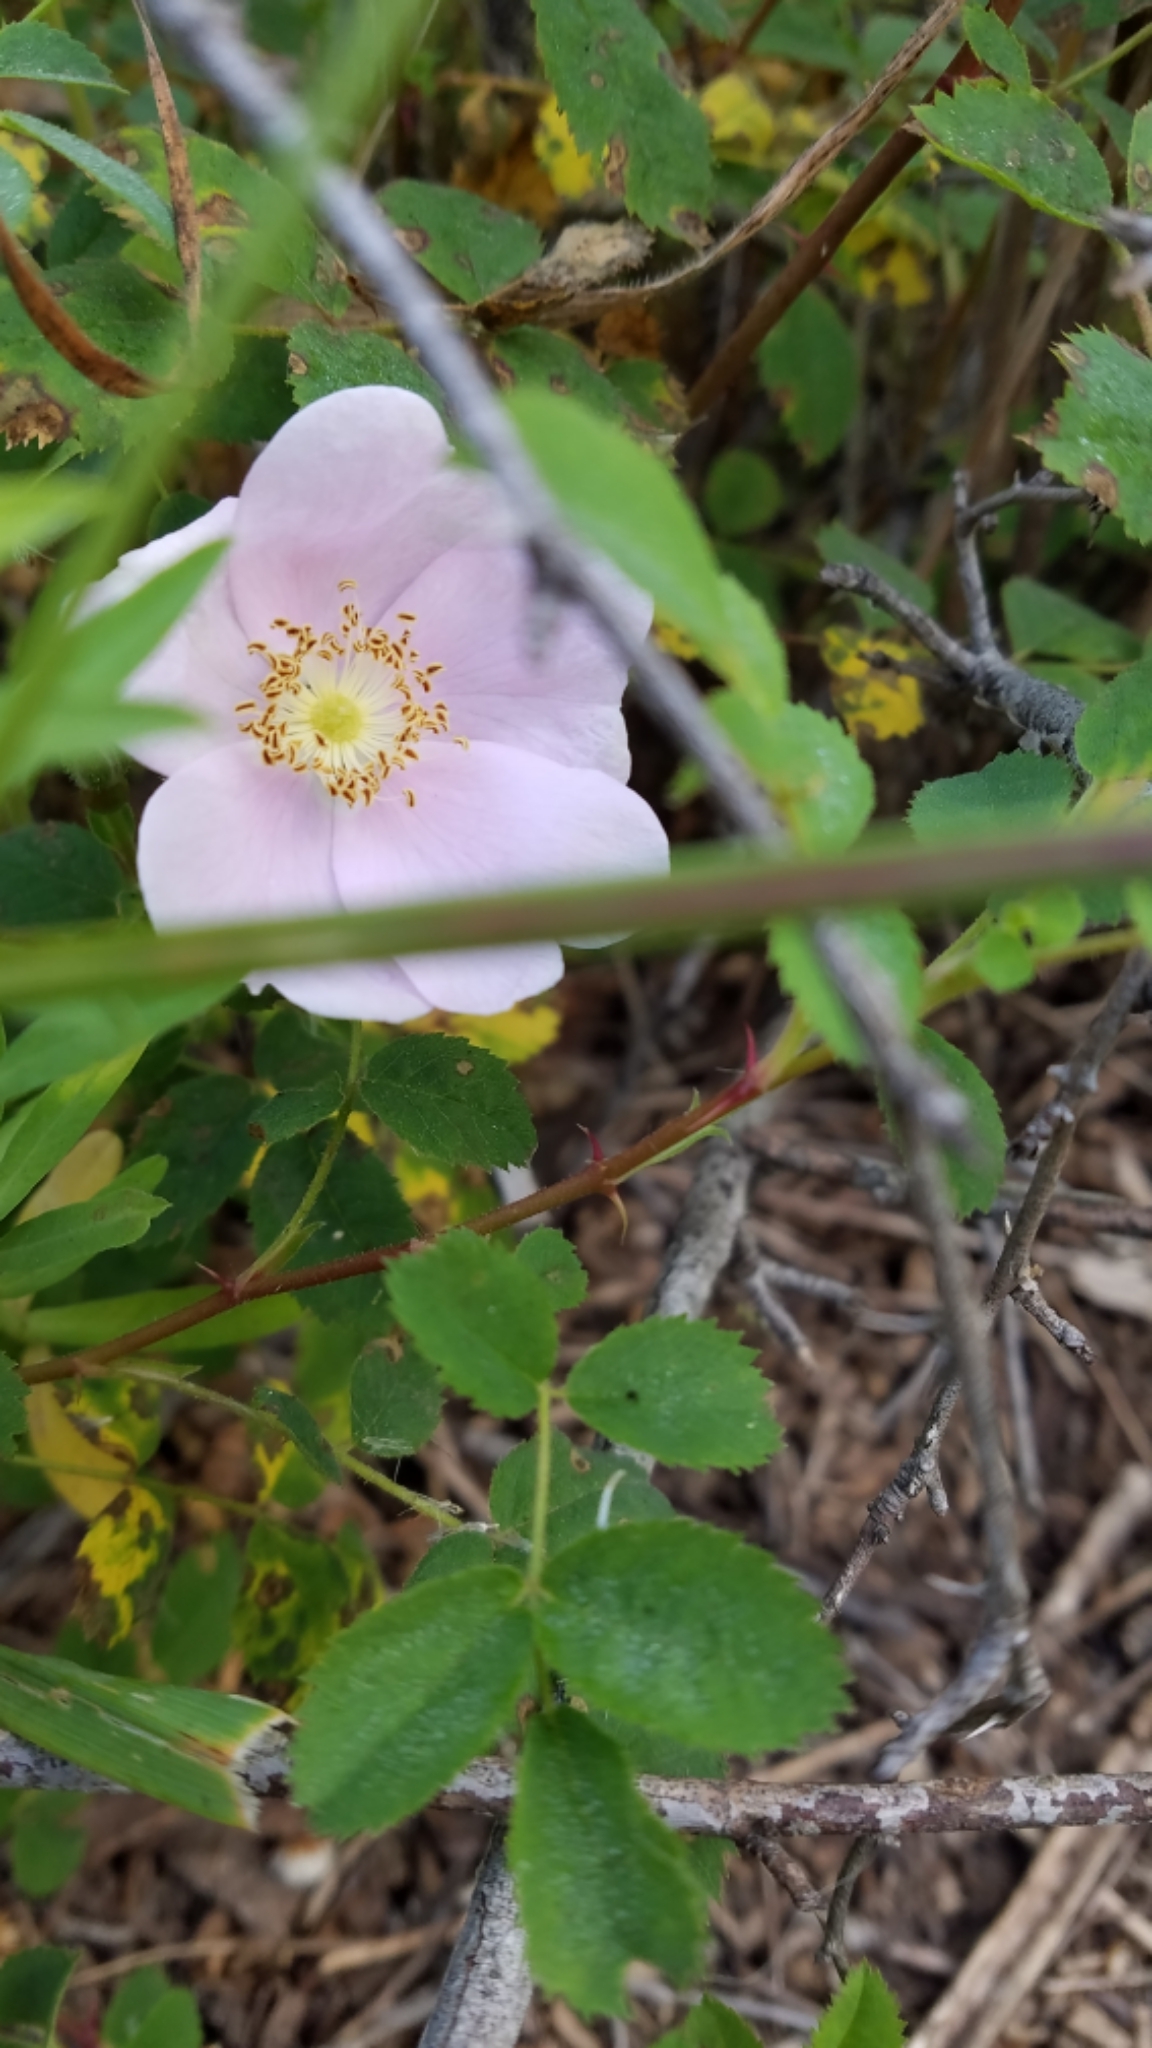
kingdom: Plantae
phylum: Tracheophyta
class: Magnoliopsida
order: Rosales
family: Rosaceae
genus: Rosa
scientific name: Rosa californica
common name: California rose
